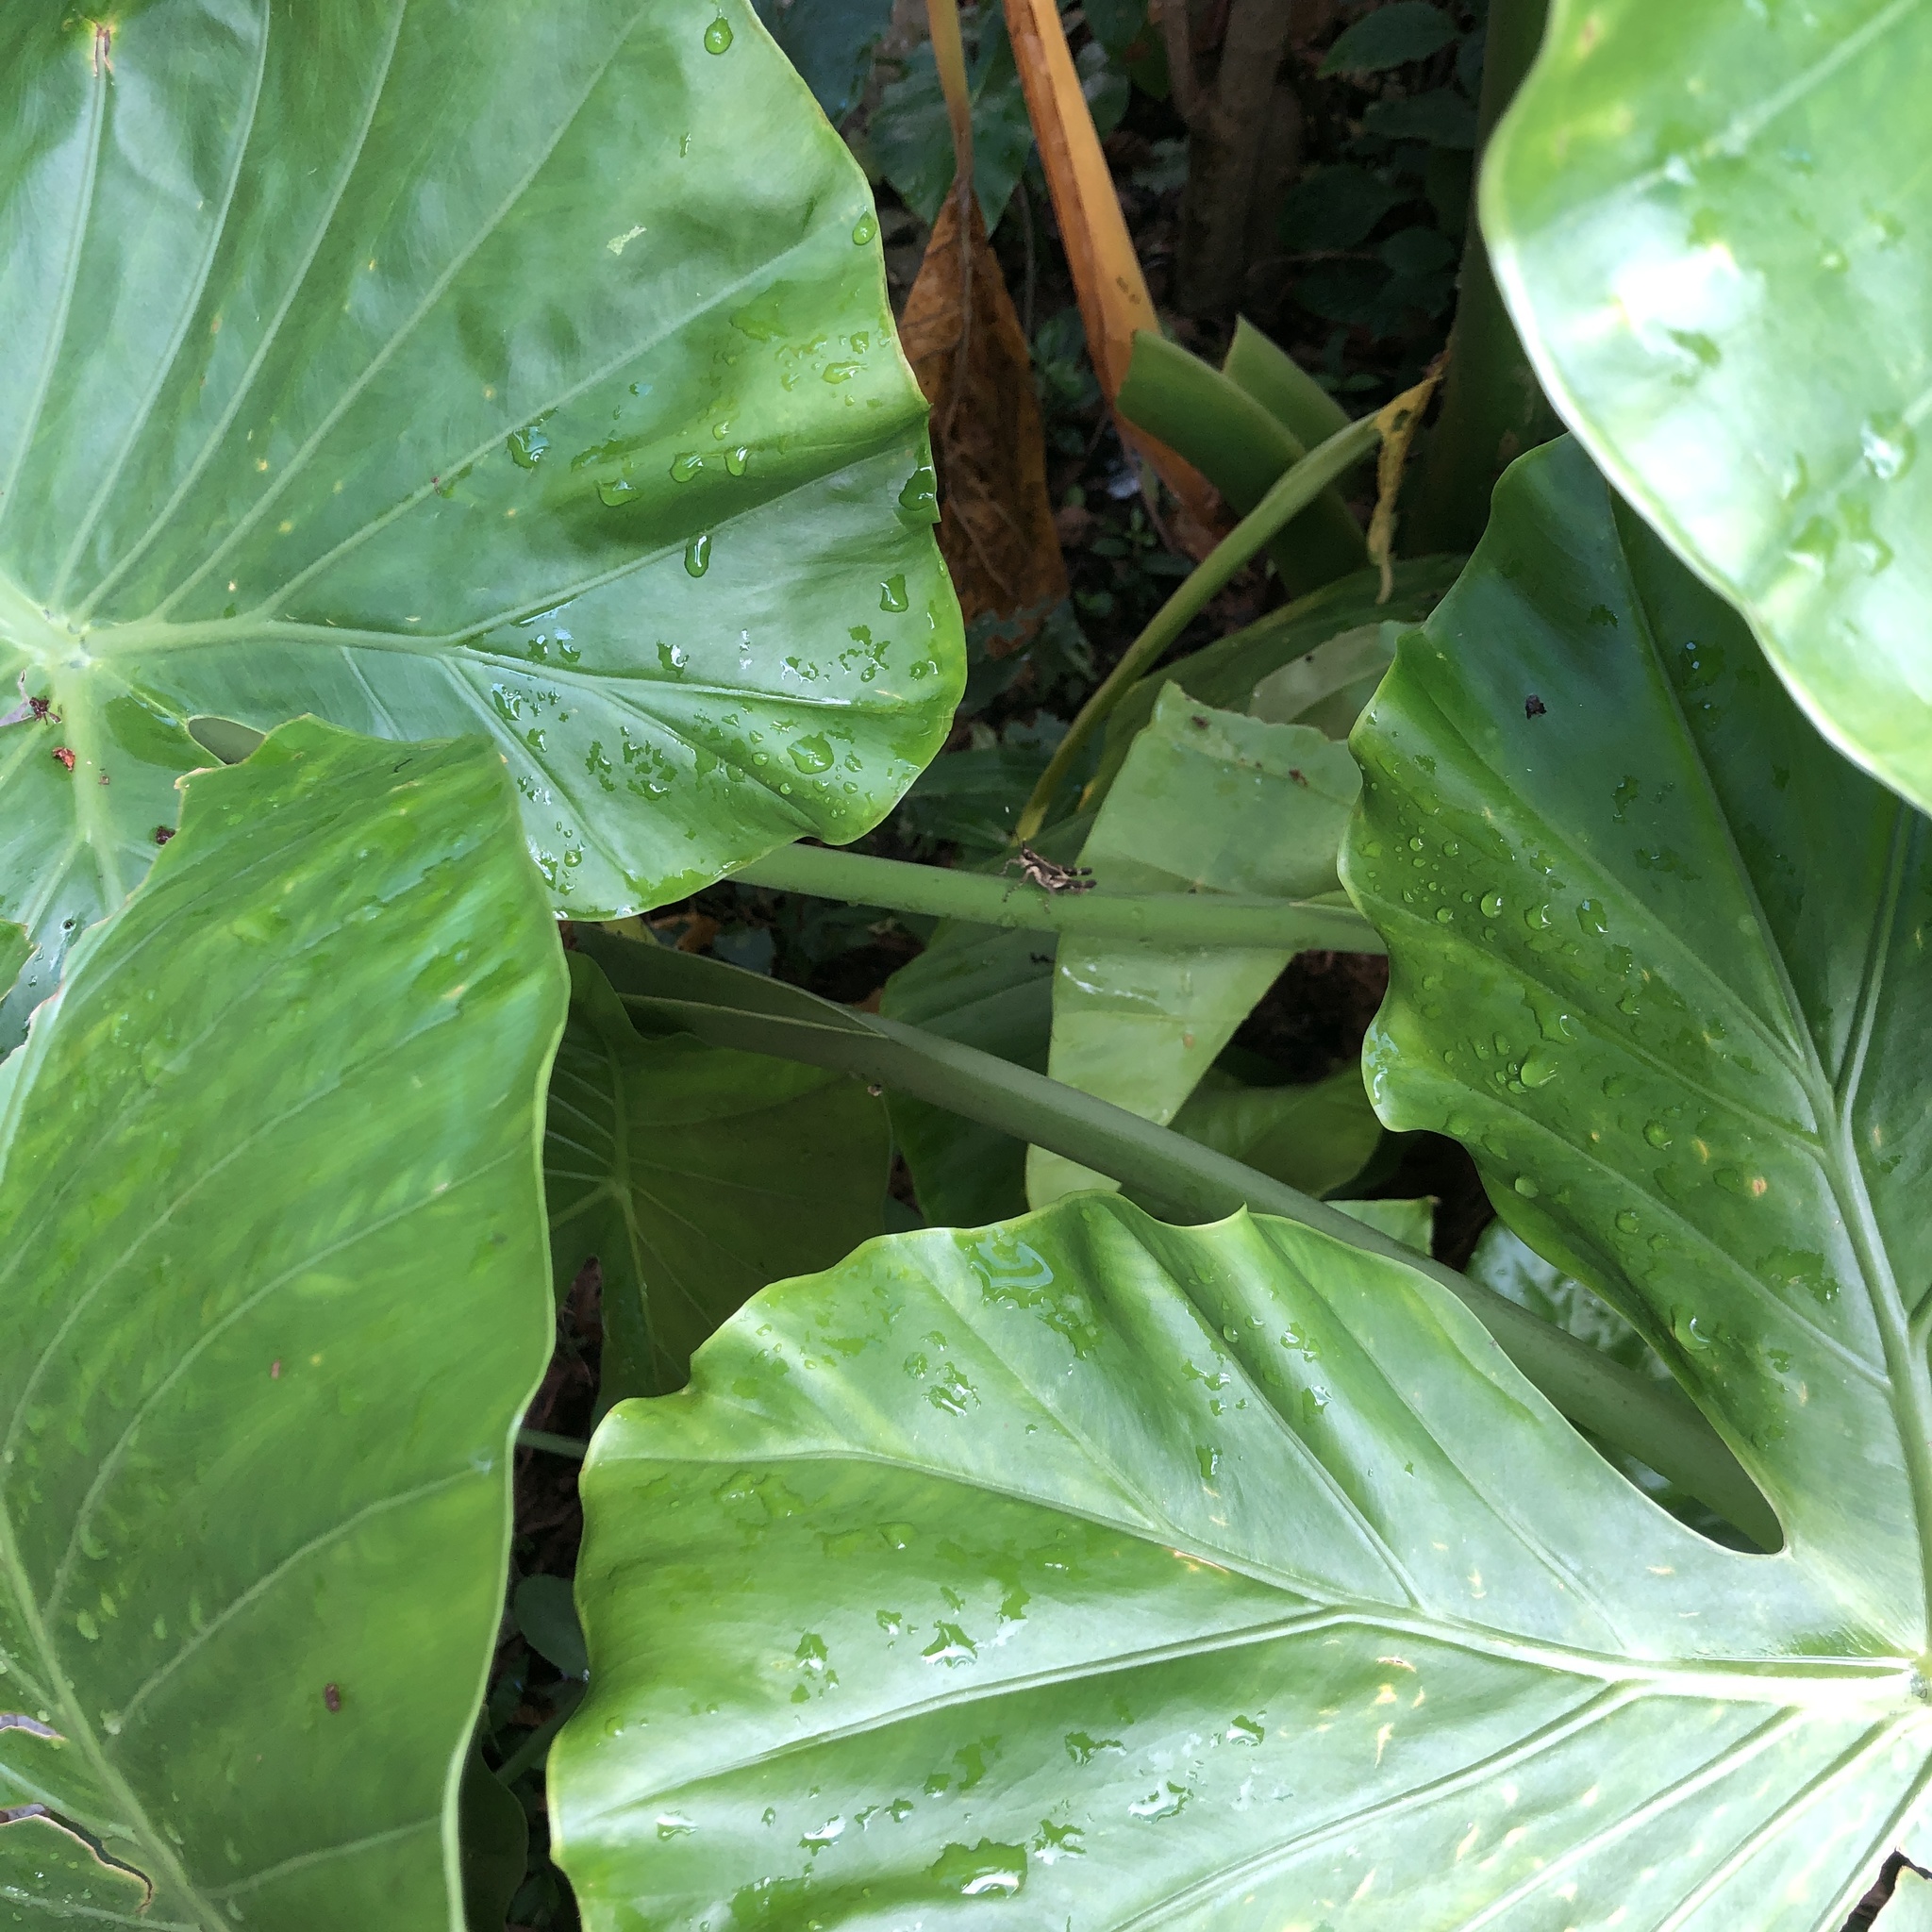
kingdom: Animalia
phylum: Arthropoda
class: Insecta
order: Orthoptera
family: Acrididae
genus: Traulia
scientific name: Traulia ornata
